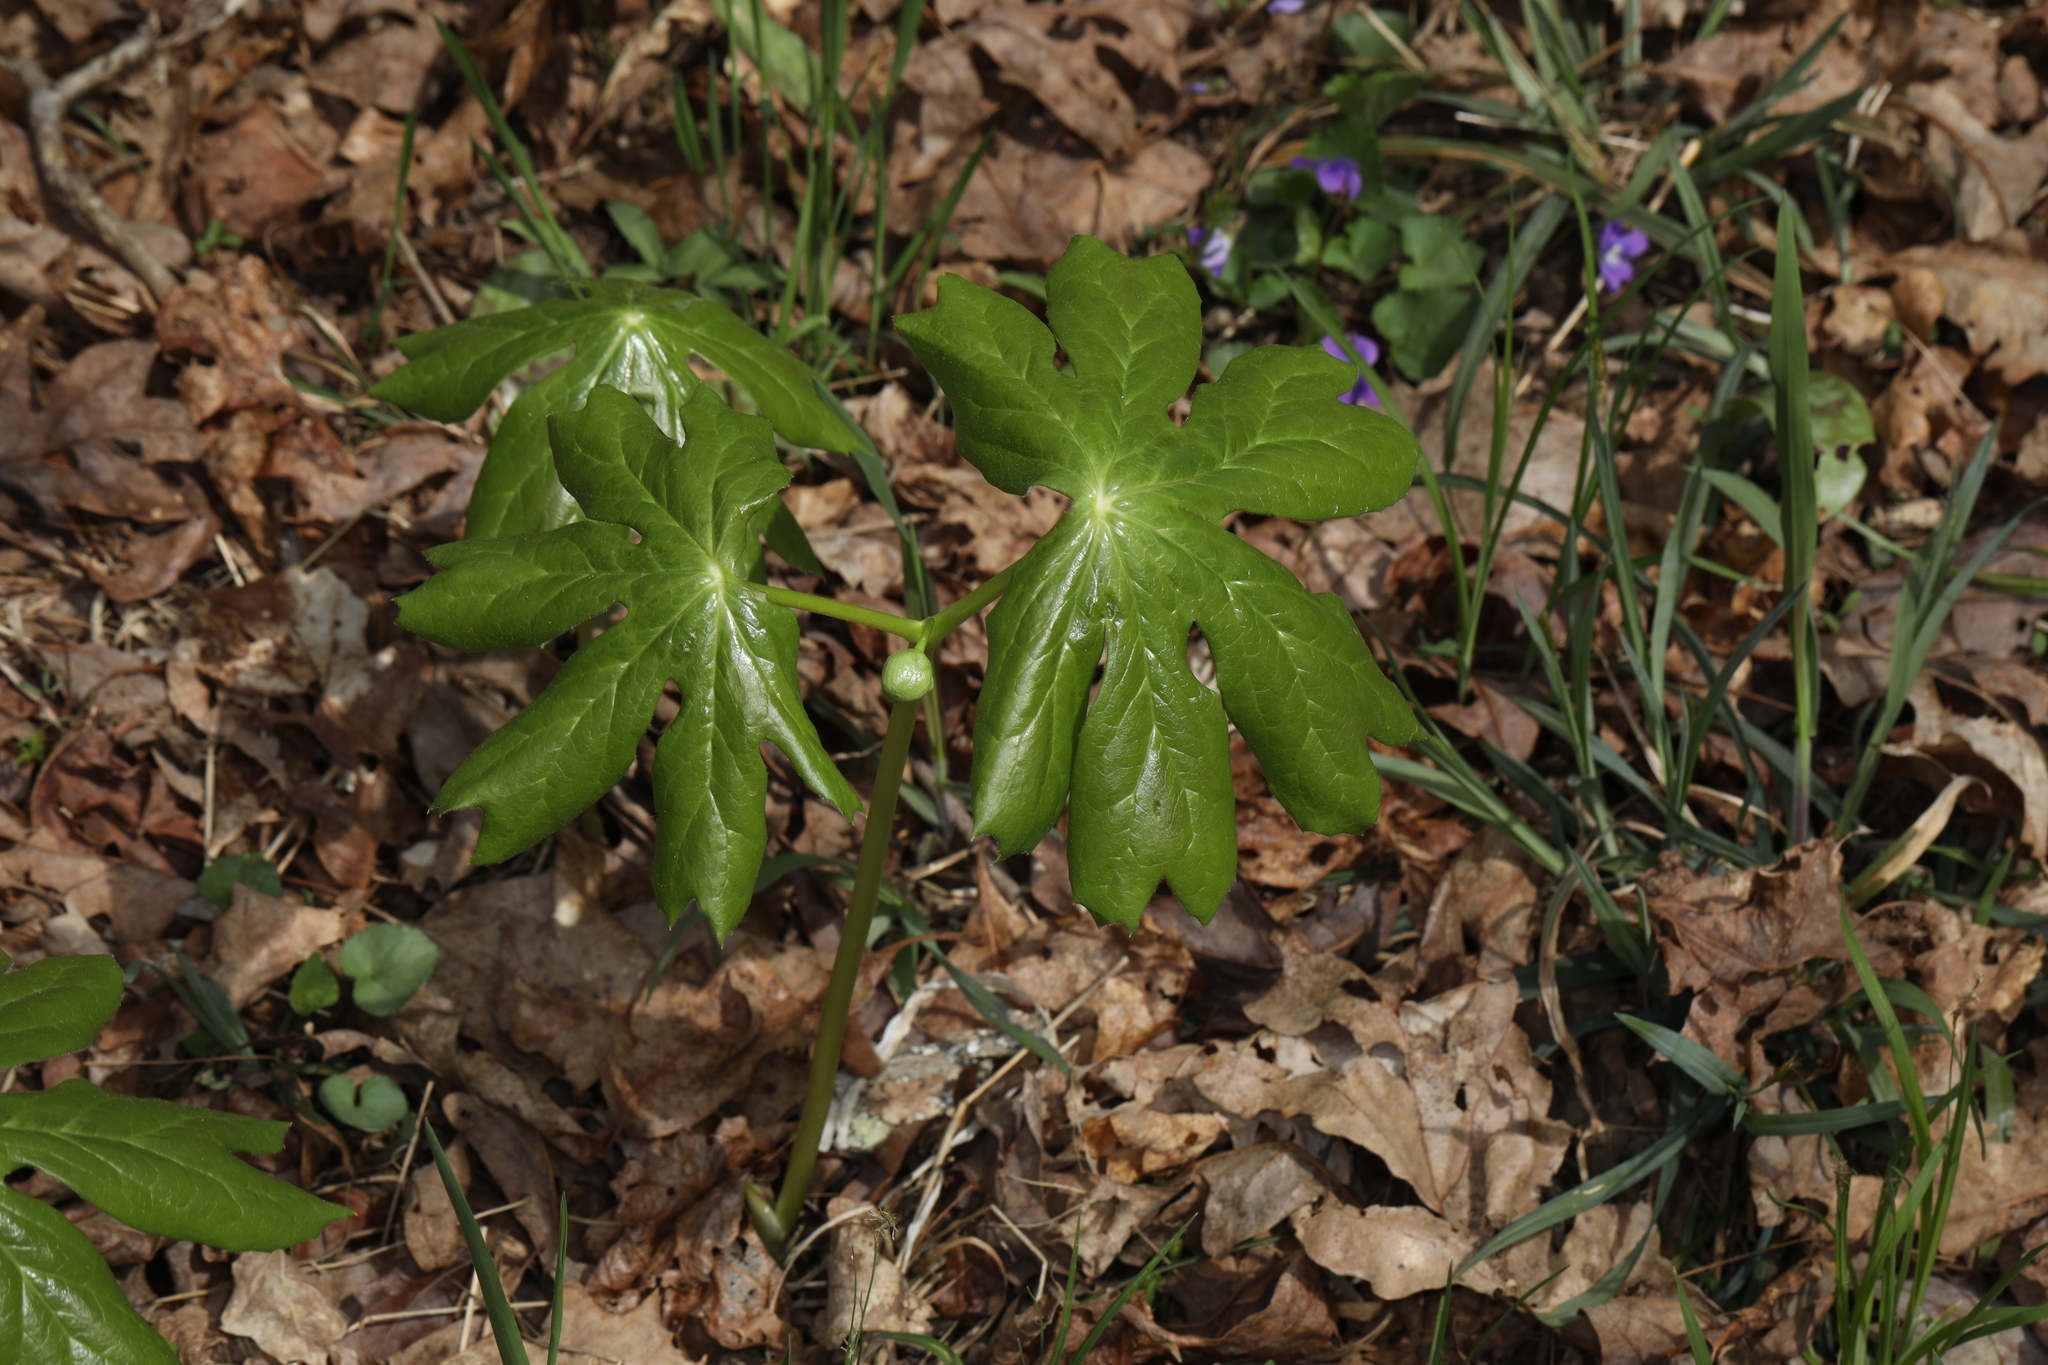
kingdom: Plantae
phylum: Tracheophyta
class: Magnoliopsida
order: Ranunculales
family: Berberidaceae
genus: Podophyllum
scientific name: Podophyllum peltatum
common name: Wild mandrake
